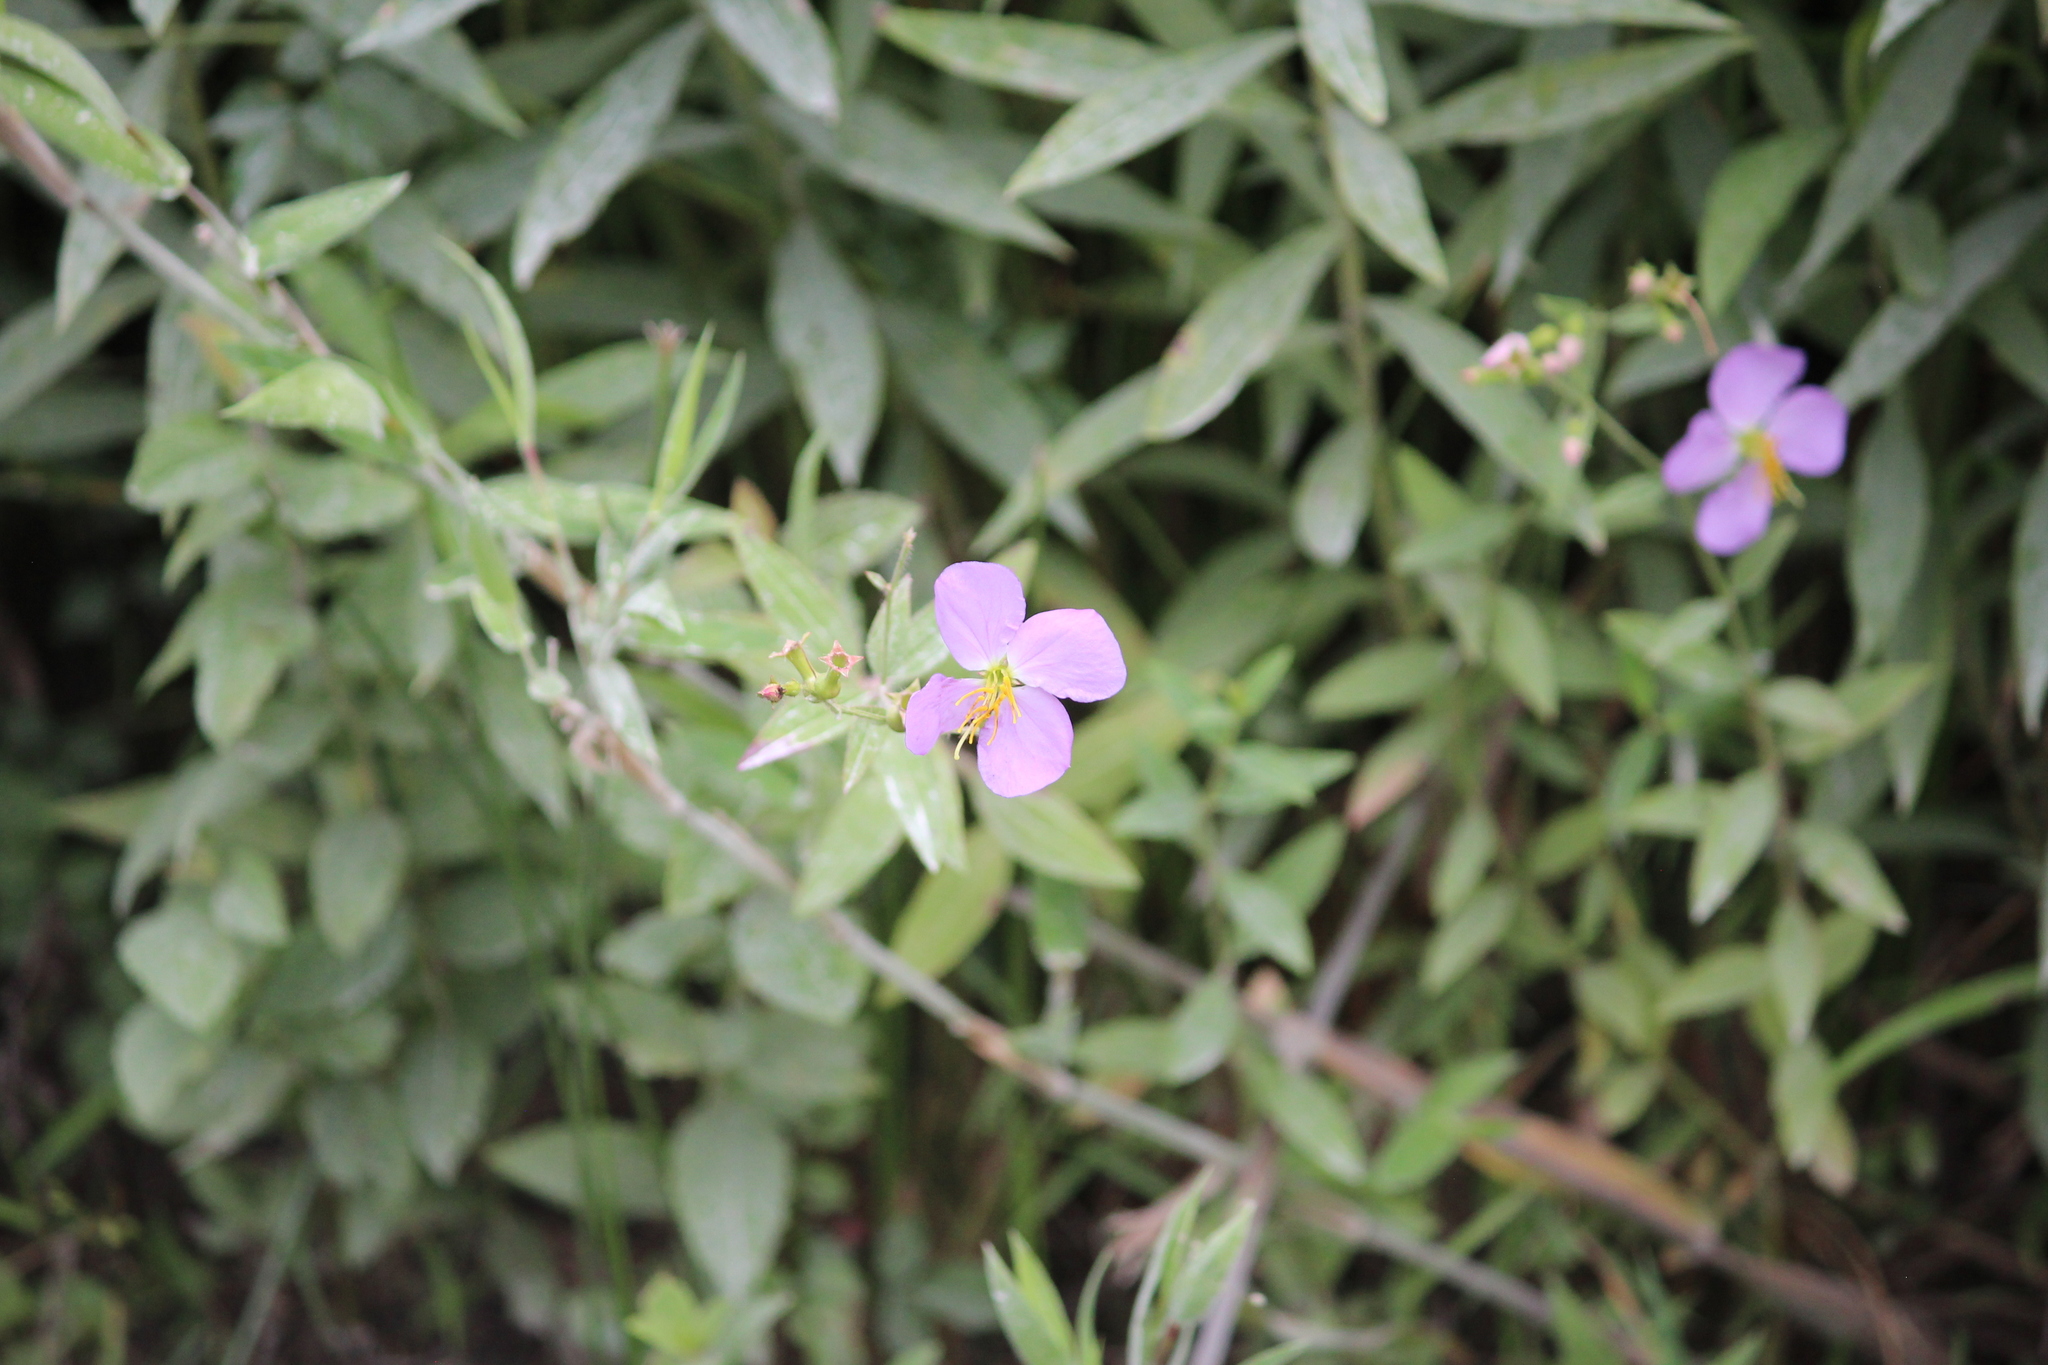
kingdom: Plantae
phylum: Tracheophyta
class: Magnoliopsida
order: Myrtales
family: Melastomataceae
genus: Rhexia
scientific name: Rhexia mariana
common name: Dull meadow-pitcher
